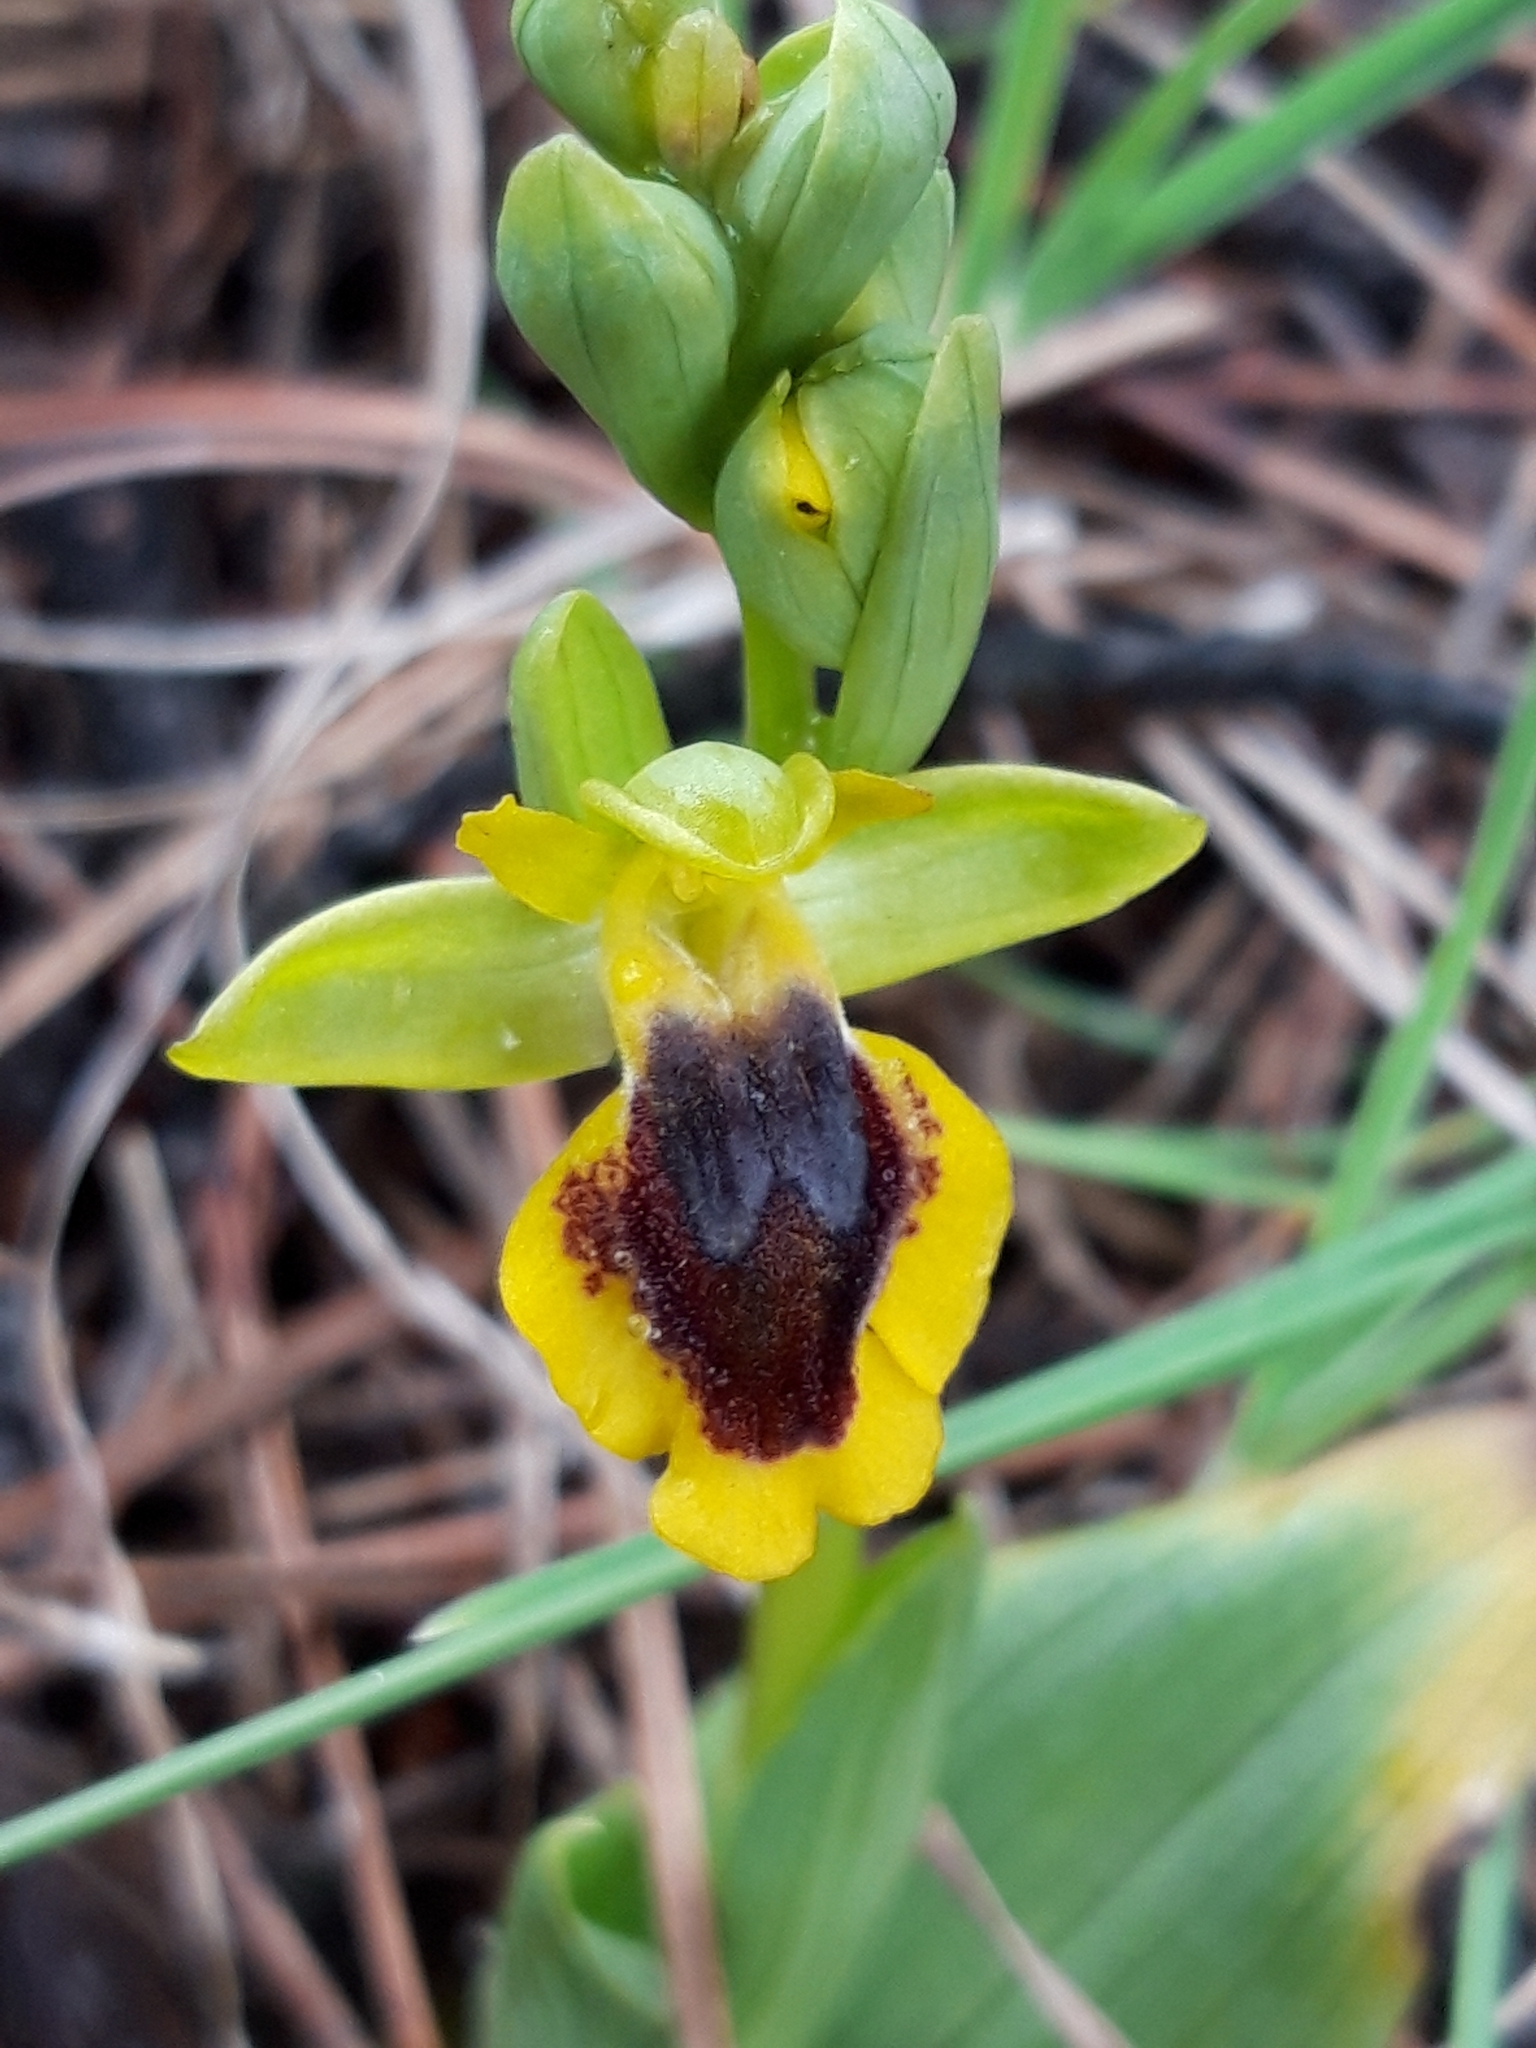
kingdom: Plantae
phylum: Tracheophyta
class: Liliopsida
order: Asparagales
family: Orchidaceae
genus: Ophrys
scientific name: Ophrys lutea
